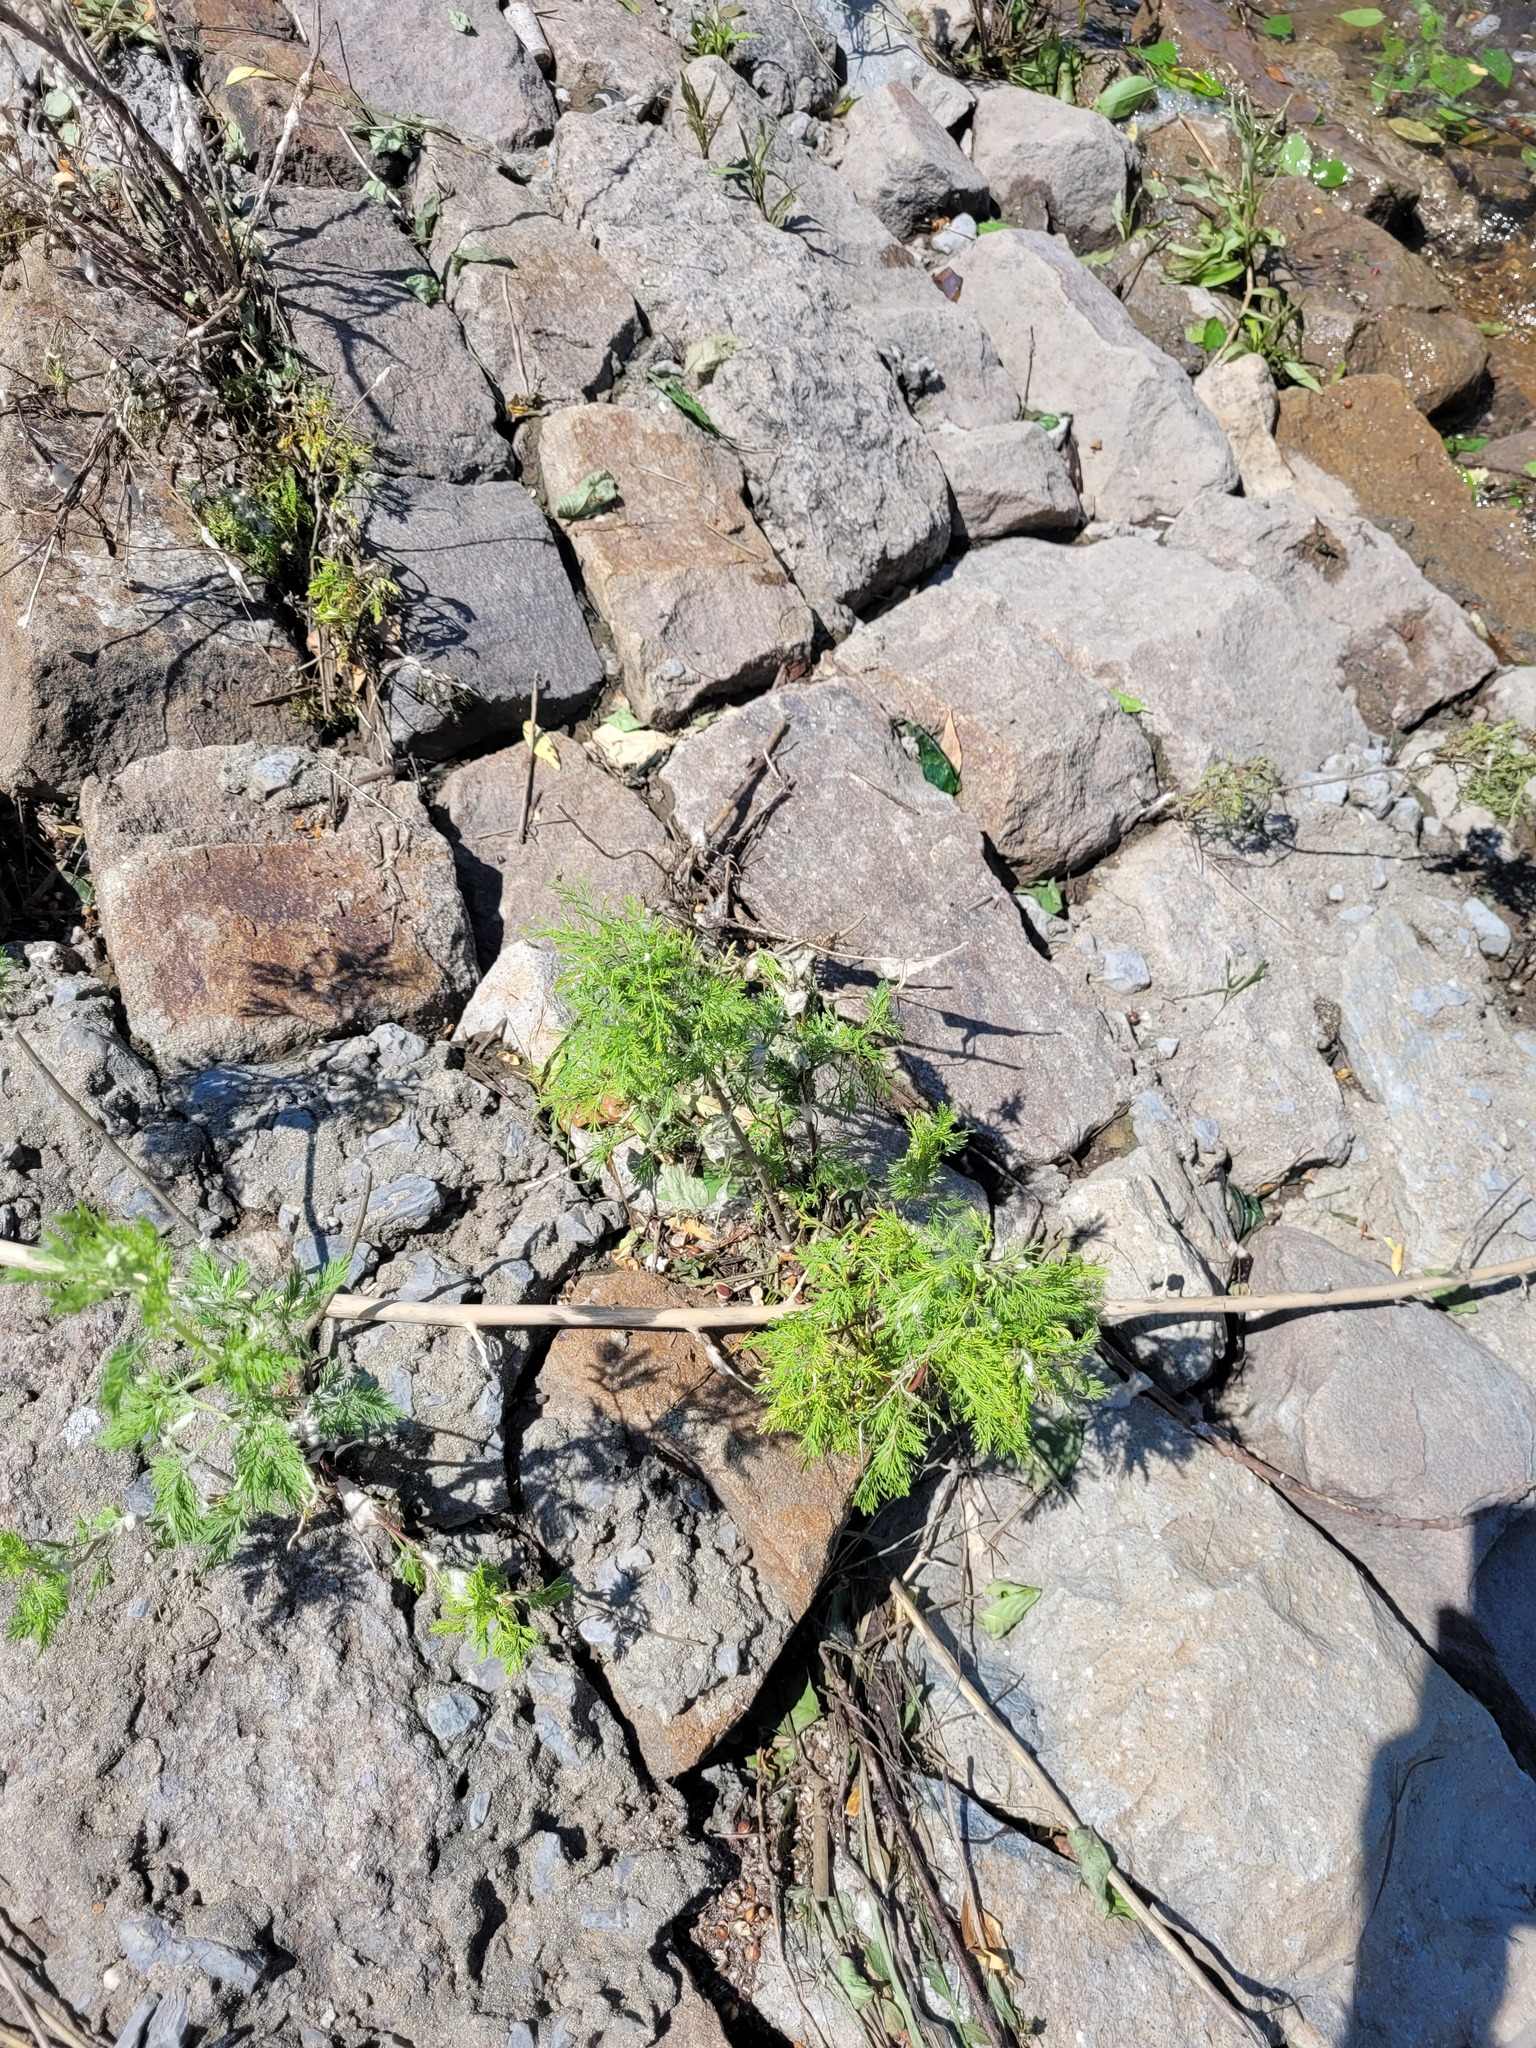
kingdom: Plantae
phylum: Tracheophyta
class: Magnoliopsida
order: Asterales
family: Asteraceae
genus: Artemisia
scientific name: Artemisia abrotanum
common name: Southernwood
